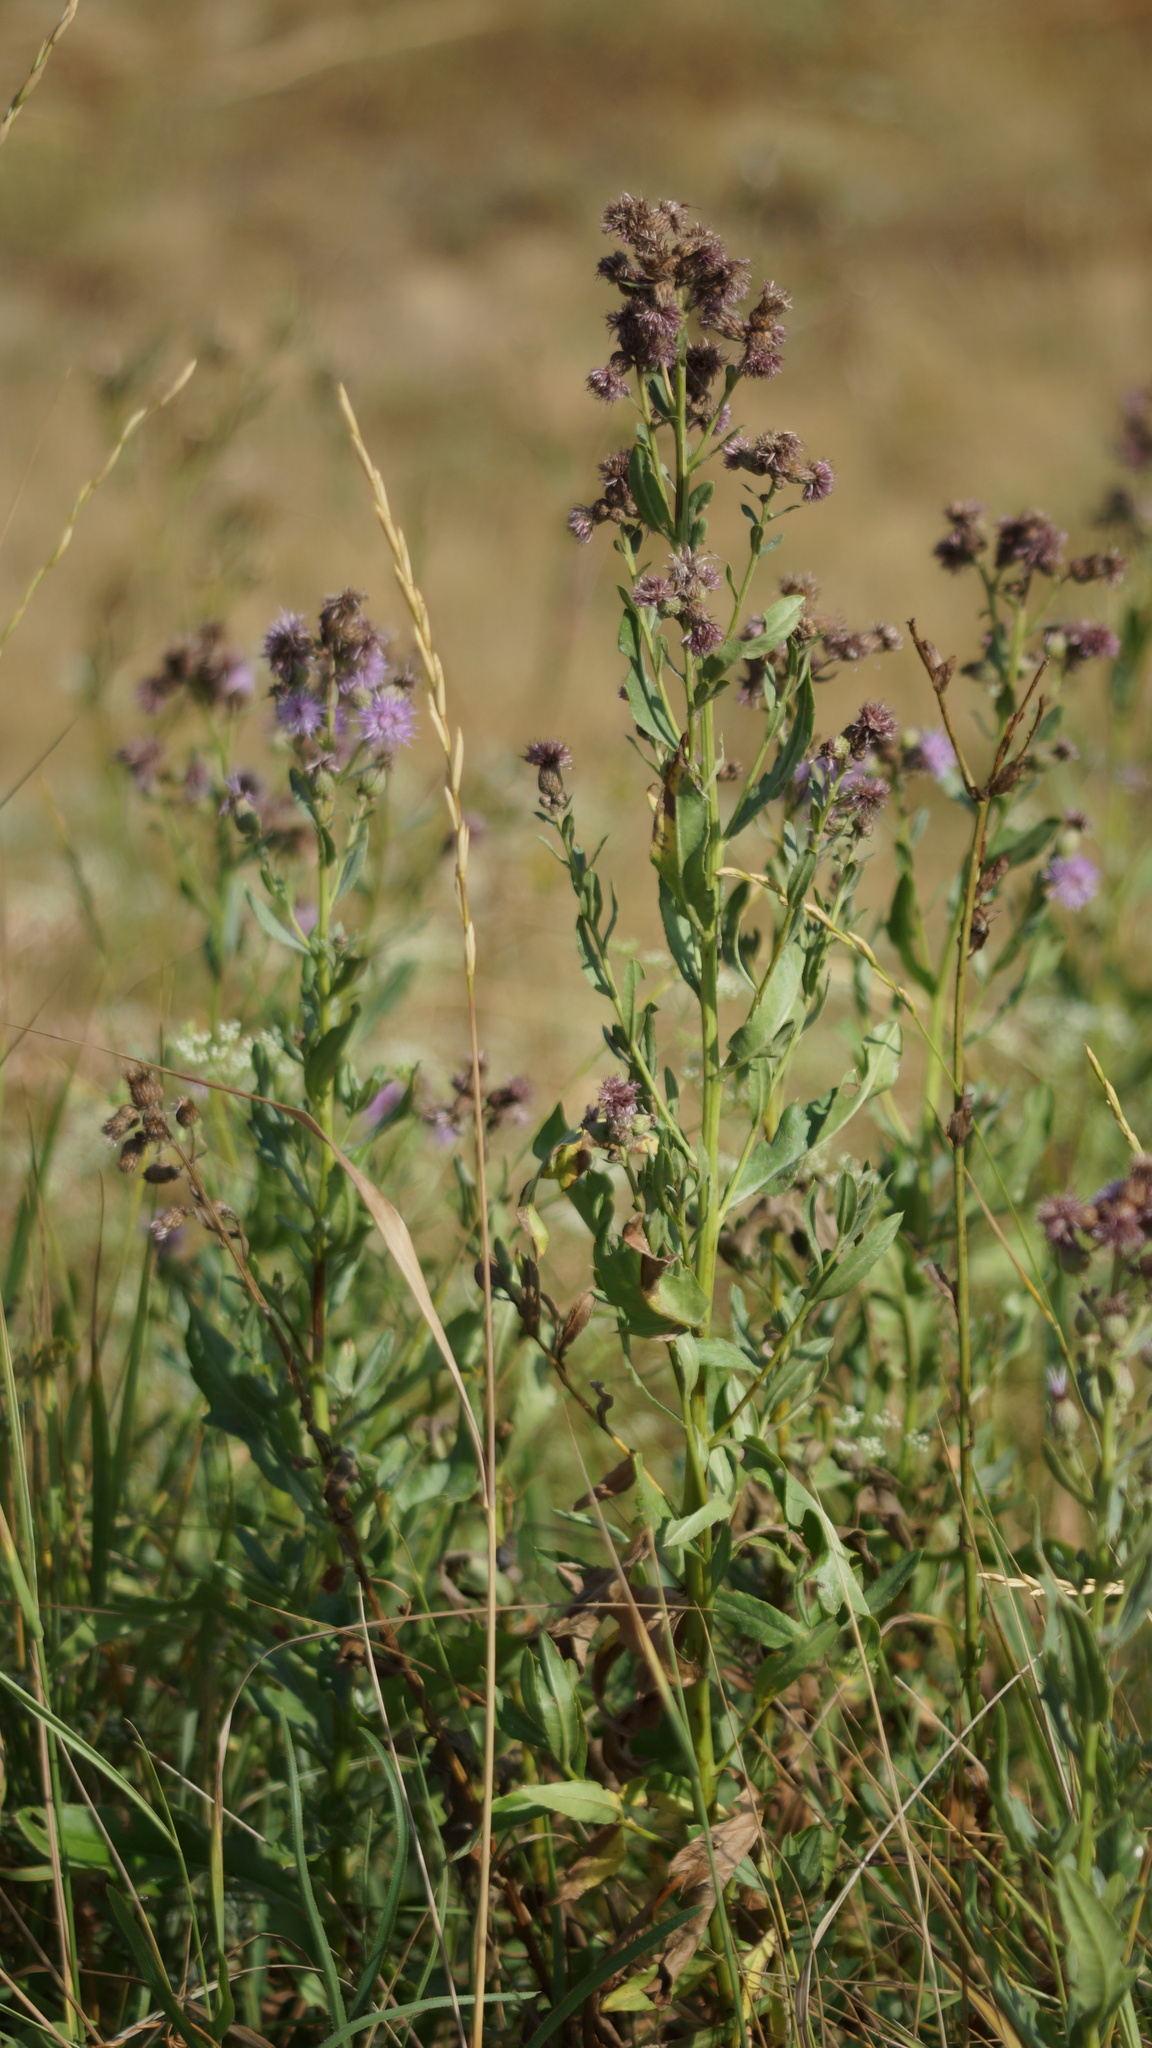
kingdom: Plantae
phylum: Tracheophyta
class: Magnoliopsida
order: Asterales
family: Asteraceae
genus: Cirsium
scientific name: Cirsium arvense
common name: Creeping thistle
